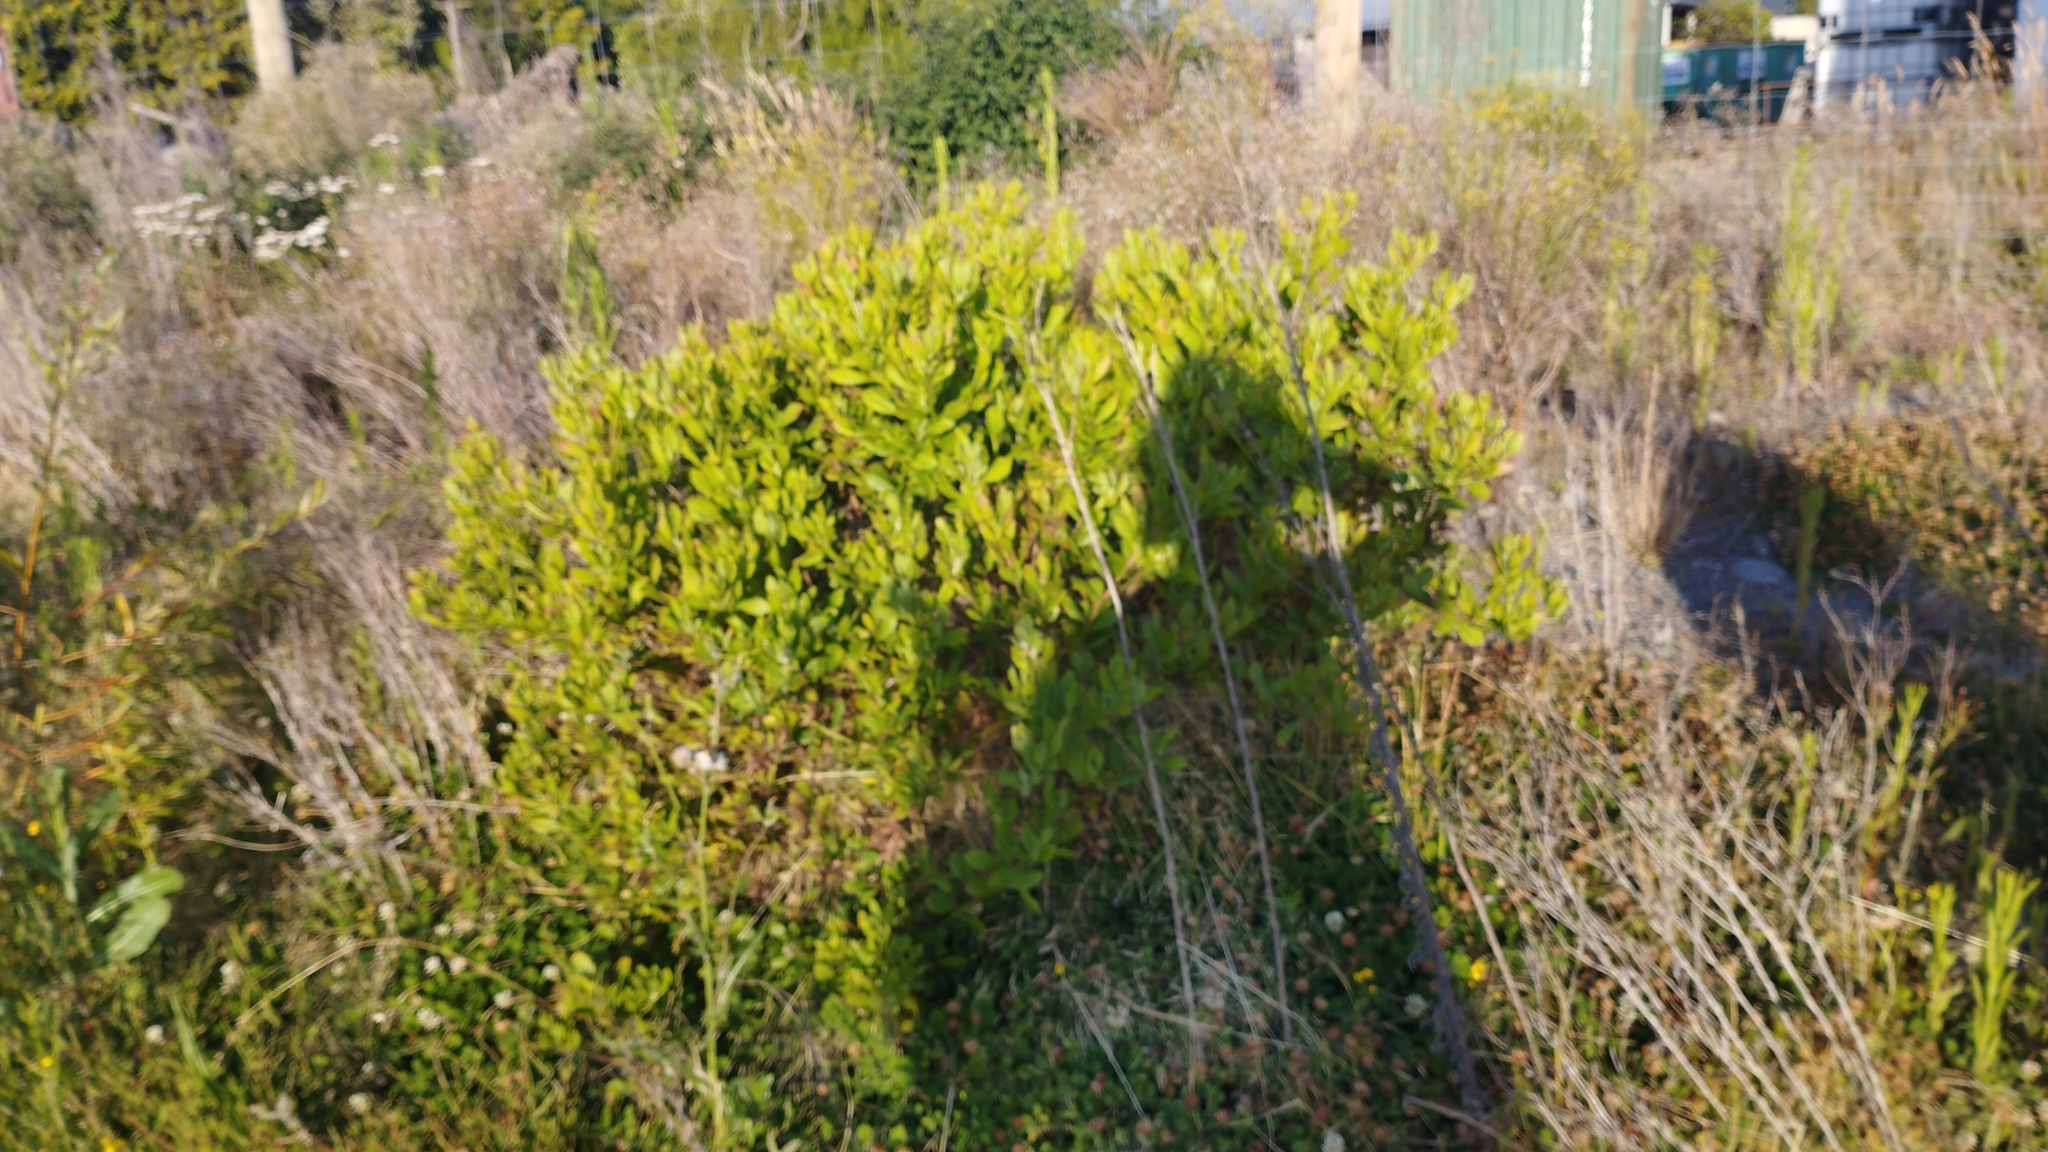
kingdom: Plantae
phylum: Tracheophyta
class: Magnoliopsida
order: Asterales
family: Asteraceae
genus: Osteospermum
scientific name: Osteospermum moniliferum
